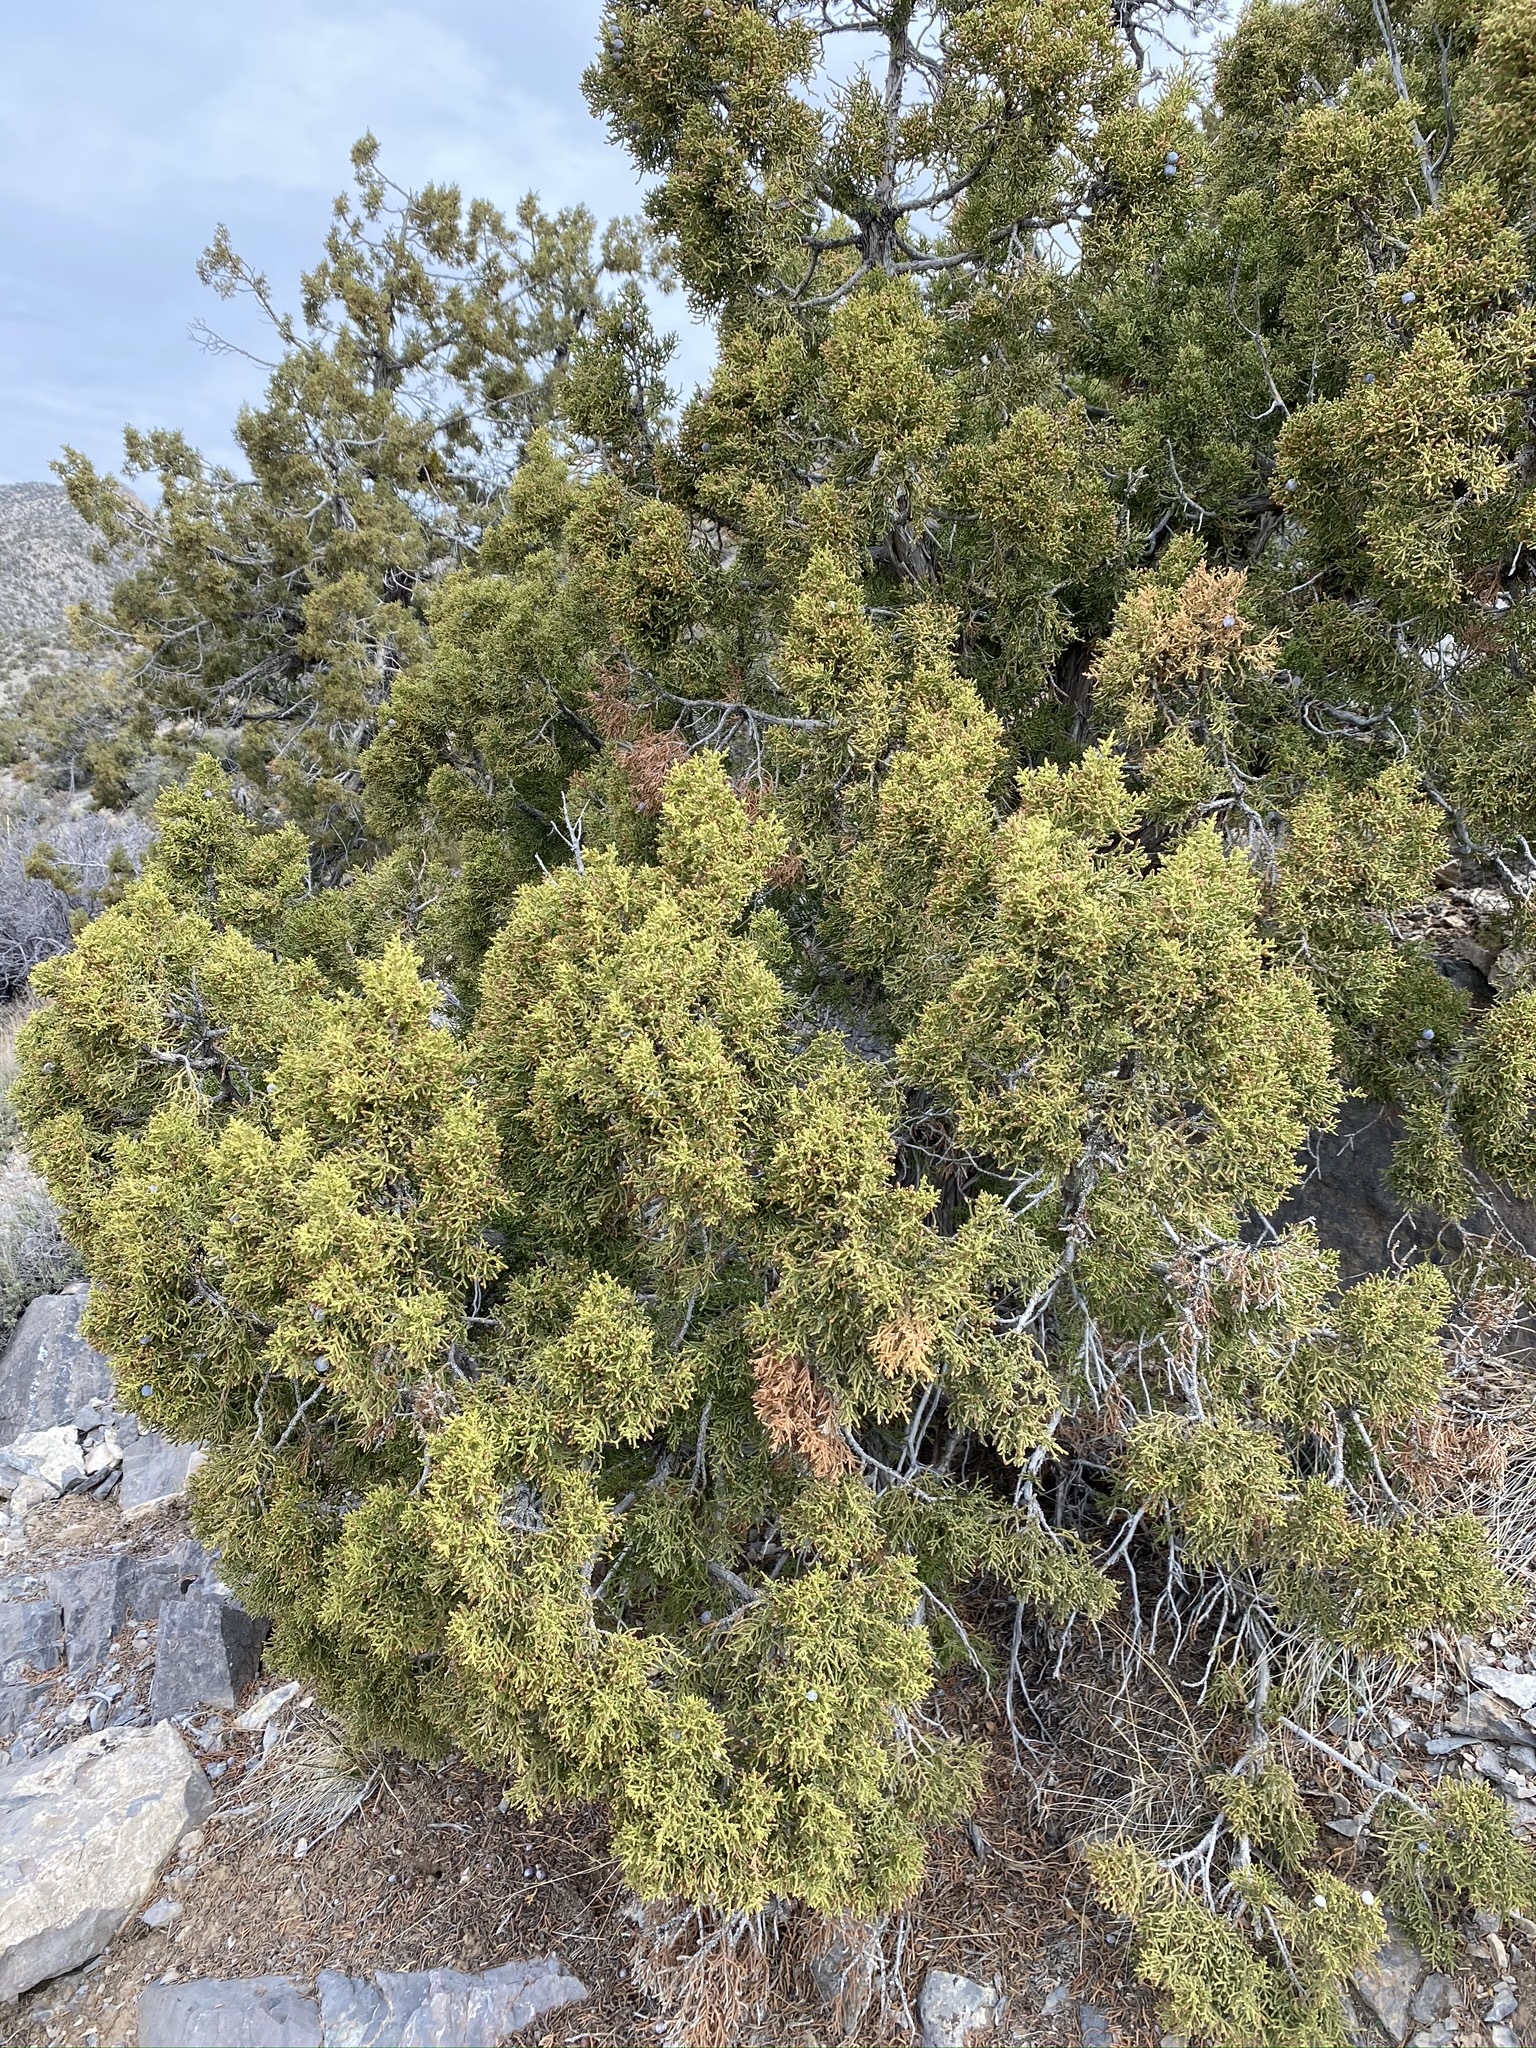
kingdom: Plantae
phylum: Tracheophyta
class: Pinopsida
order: Pinales
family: Cupressaceae
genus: Juniperus
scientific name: Juniperus osteosperma
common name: Utah juniper
